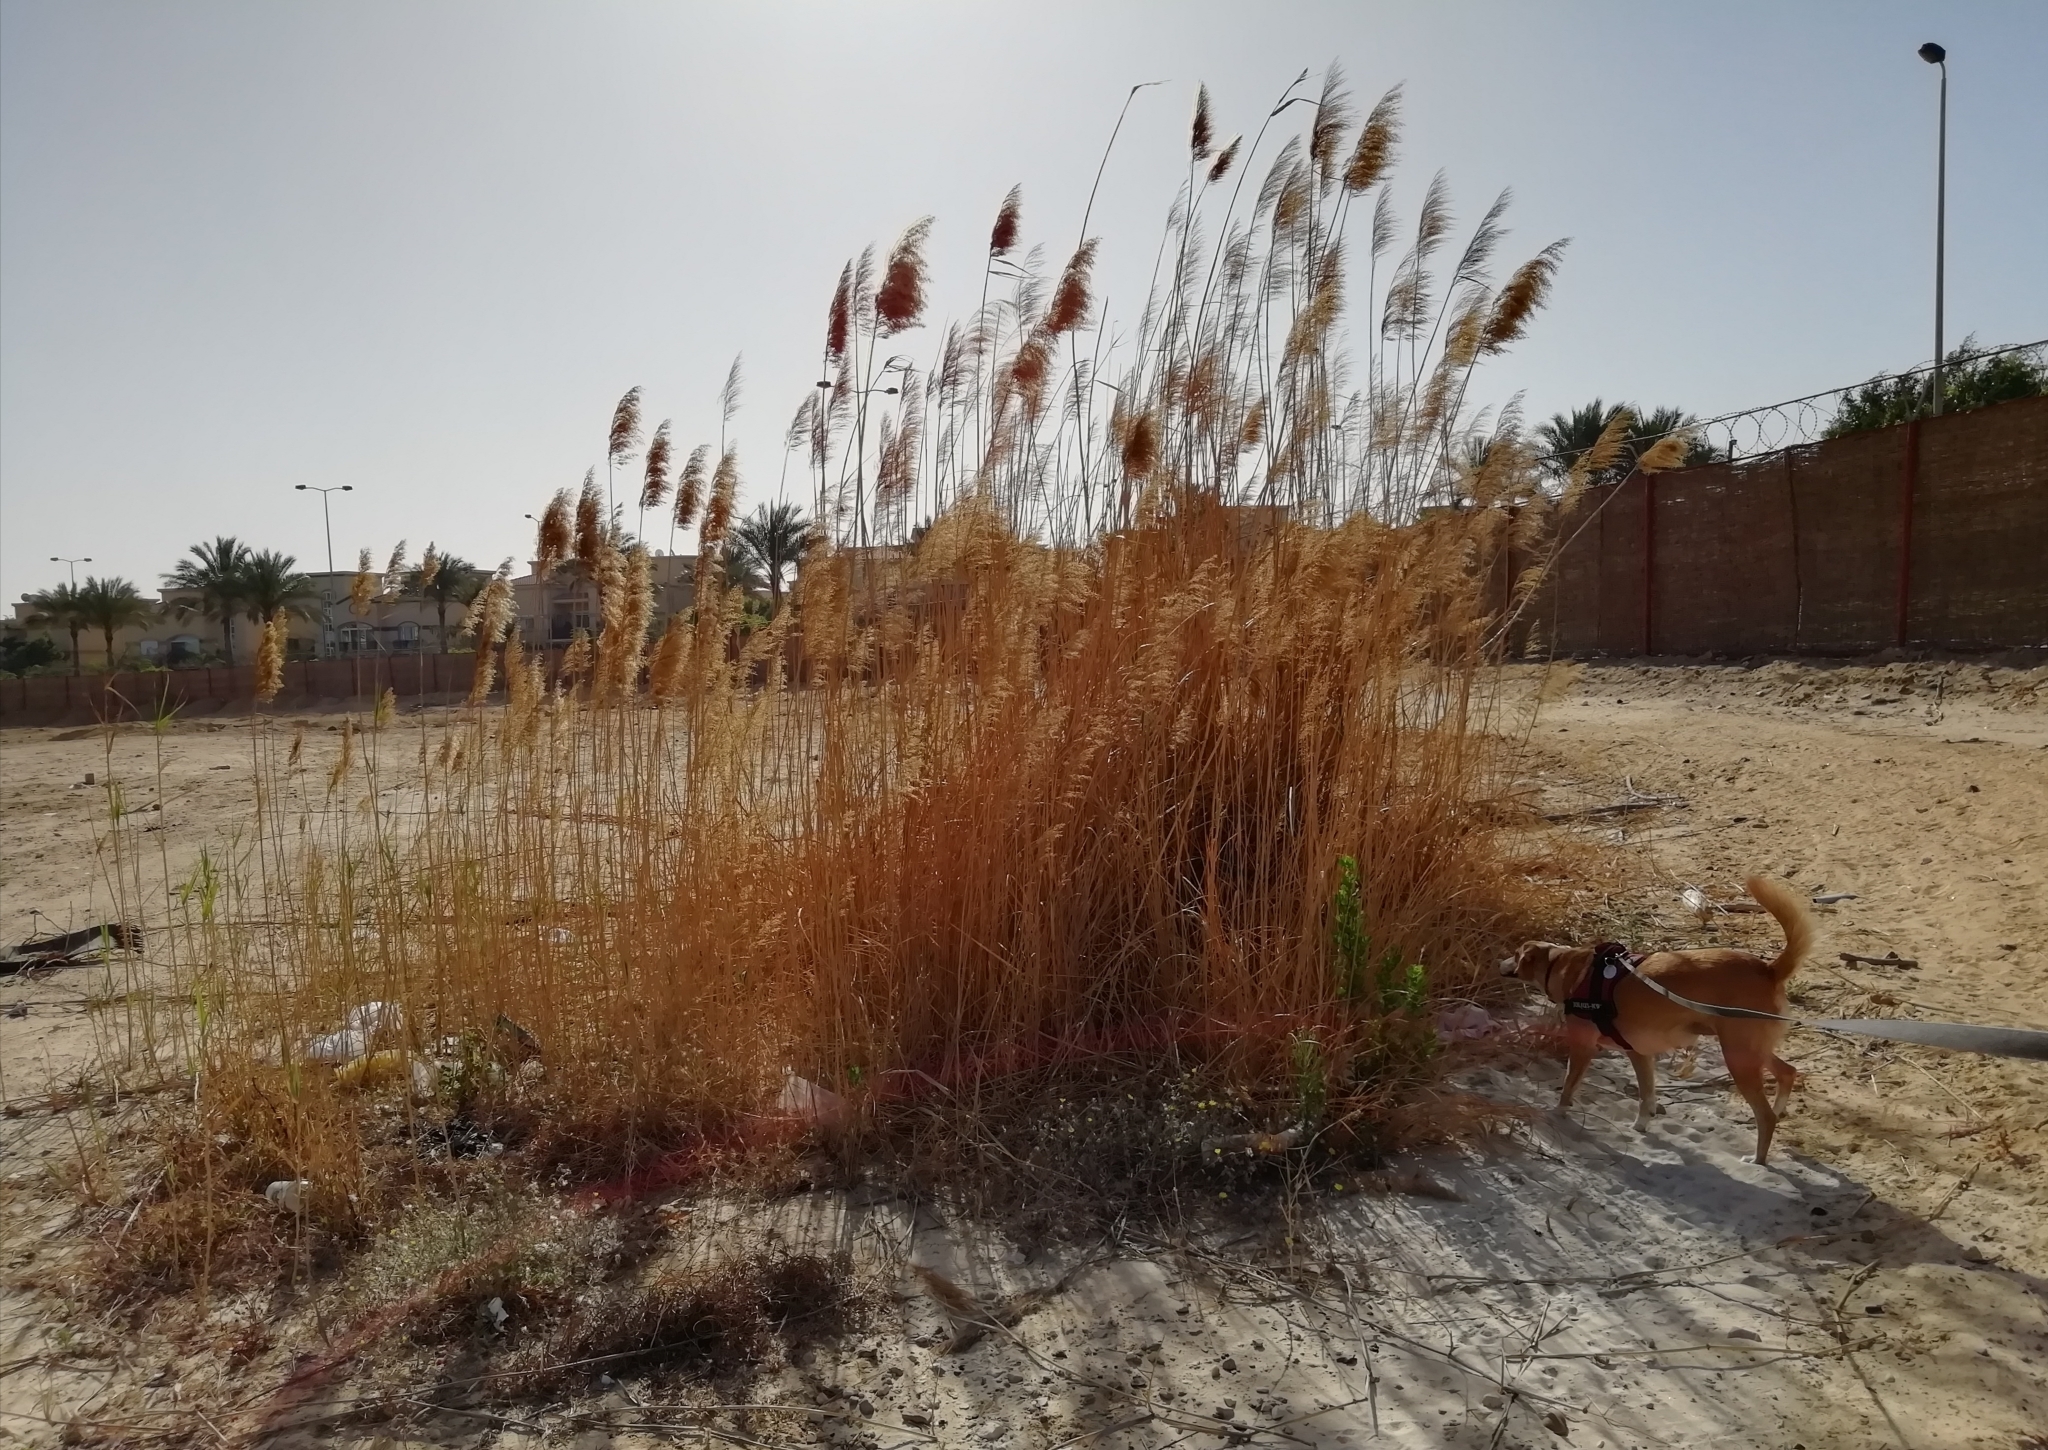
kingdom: Plantae
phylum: Tracheophyta
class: Liliopsida
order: Poales
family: Poaceae
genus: Phragmites
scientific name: Phragmites australis
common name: Common reed
